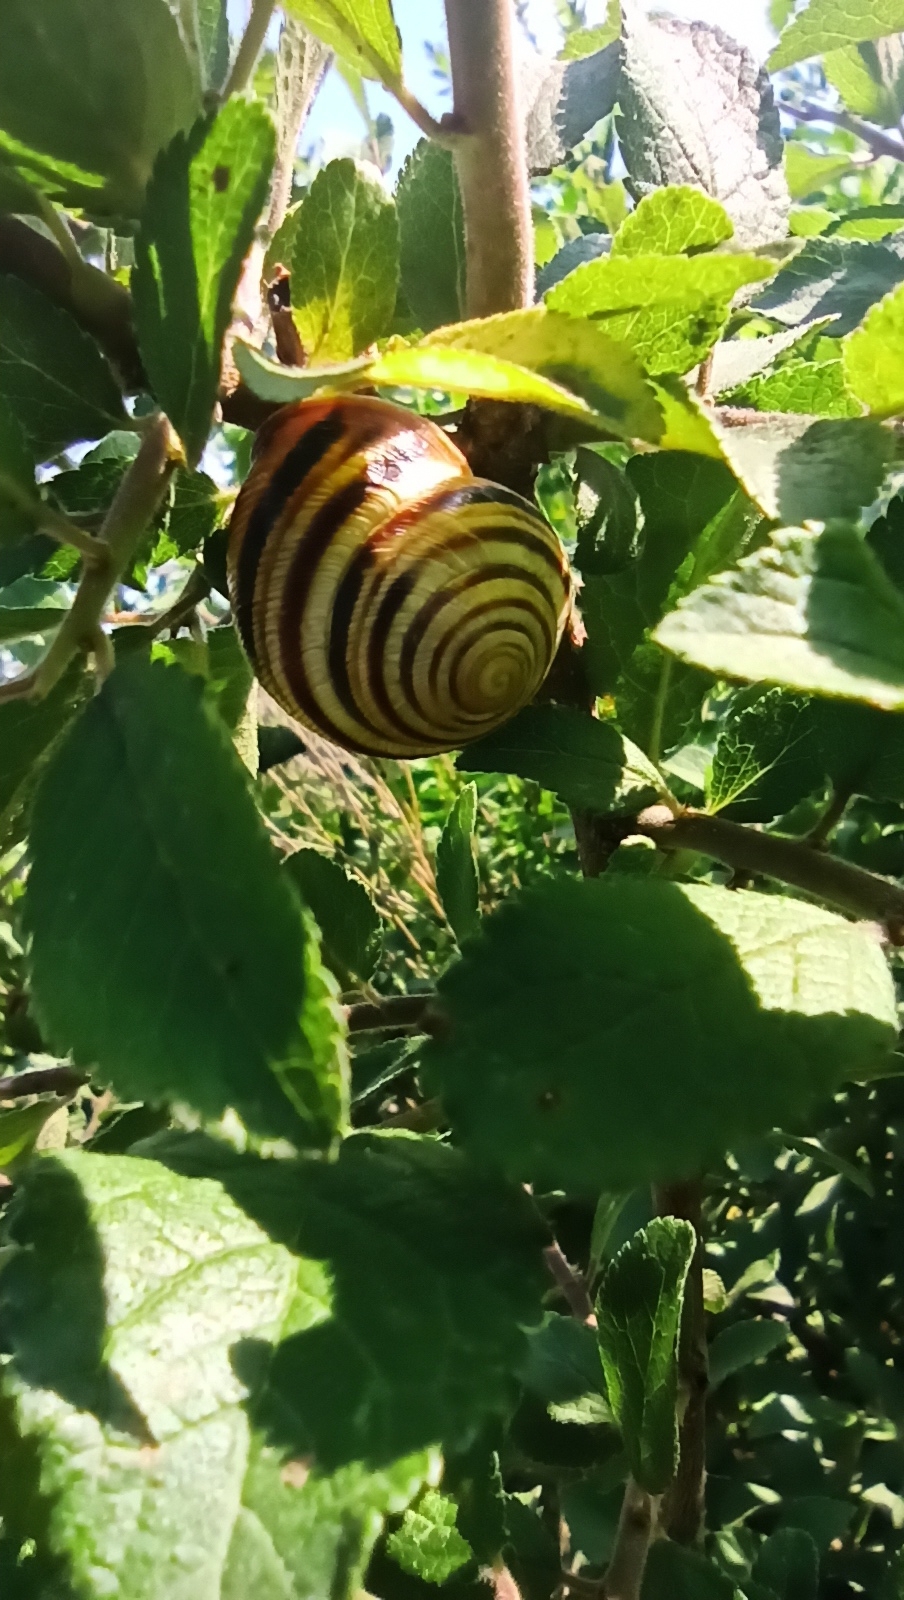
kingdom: Animalia
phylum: Mollusca
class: Gastropoda
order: Stylommatophora
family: Helicidae
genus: Caucasotachea
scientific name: Caucasotachea vindobonensis
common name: European helicid land snail
